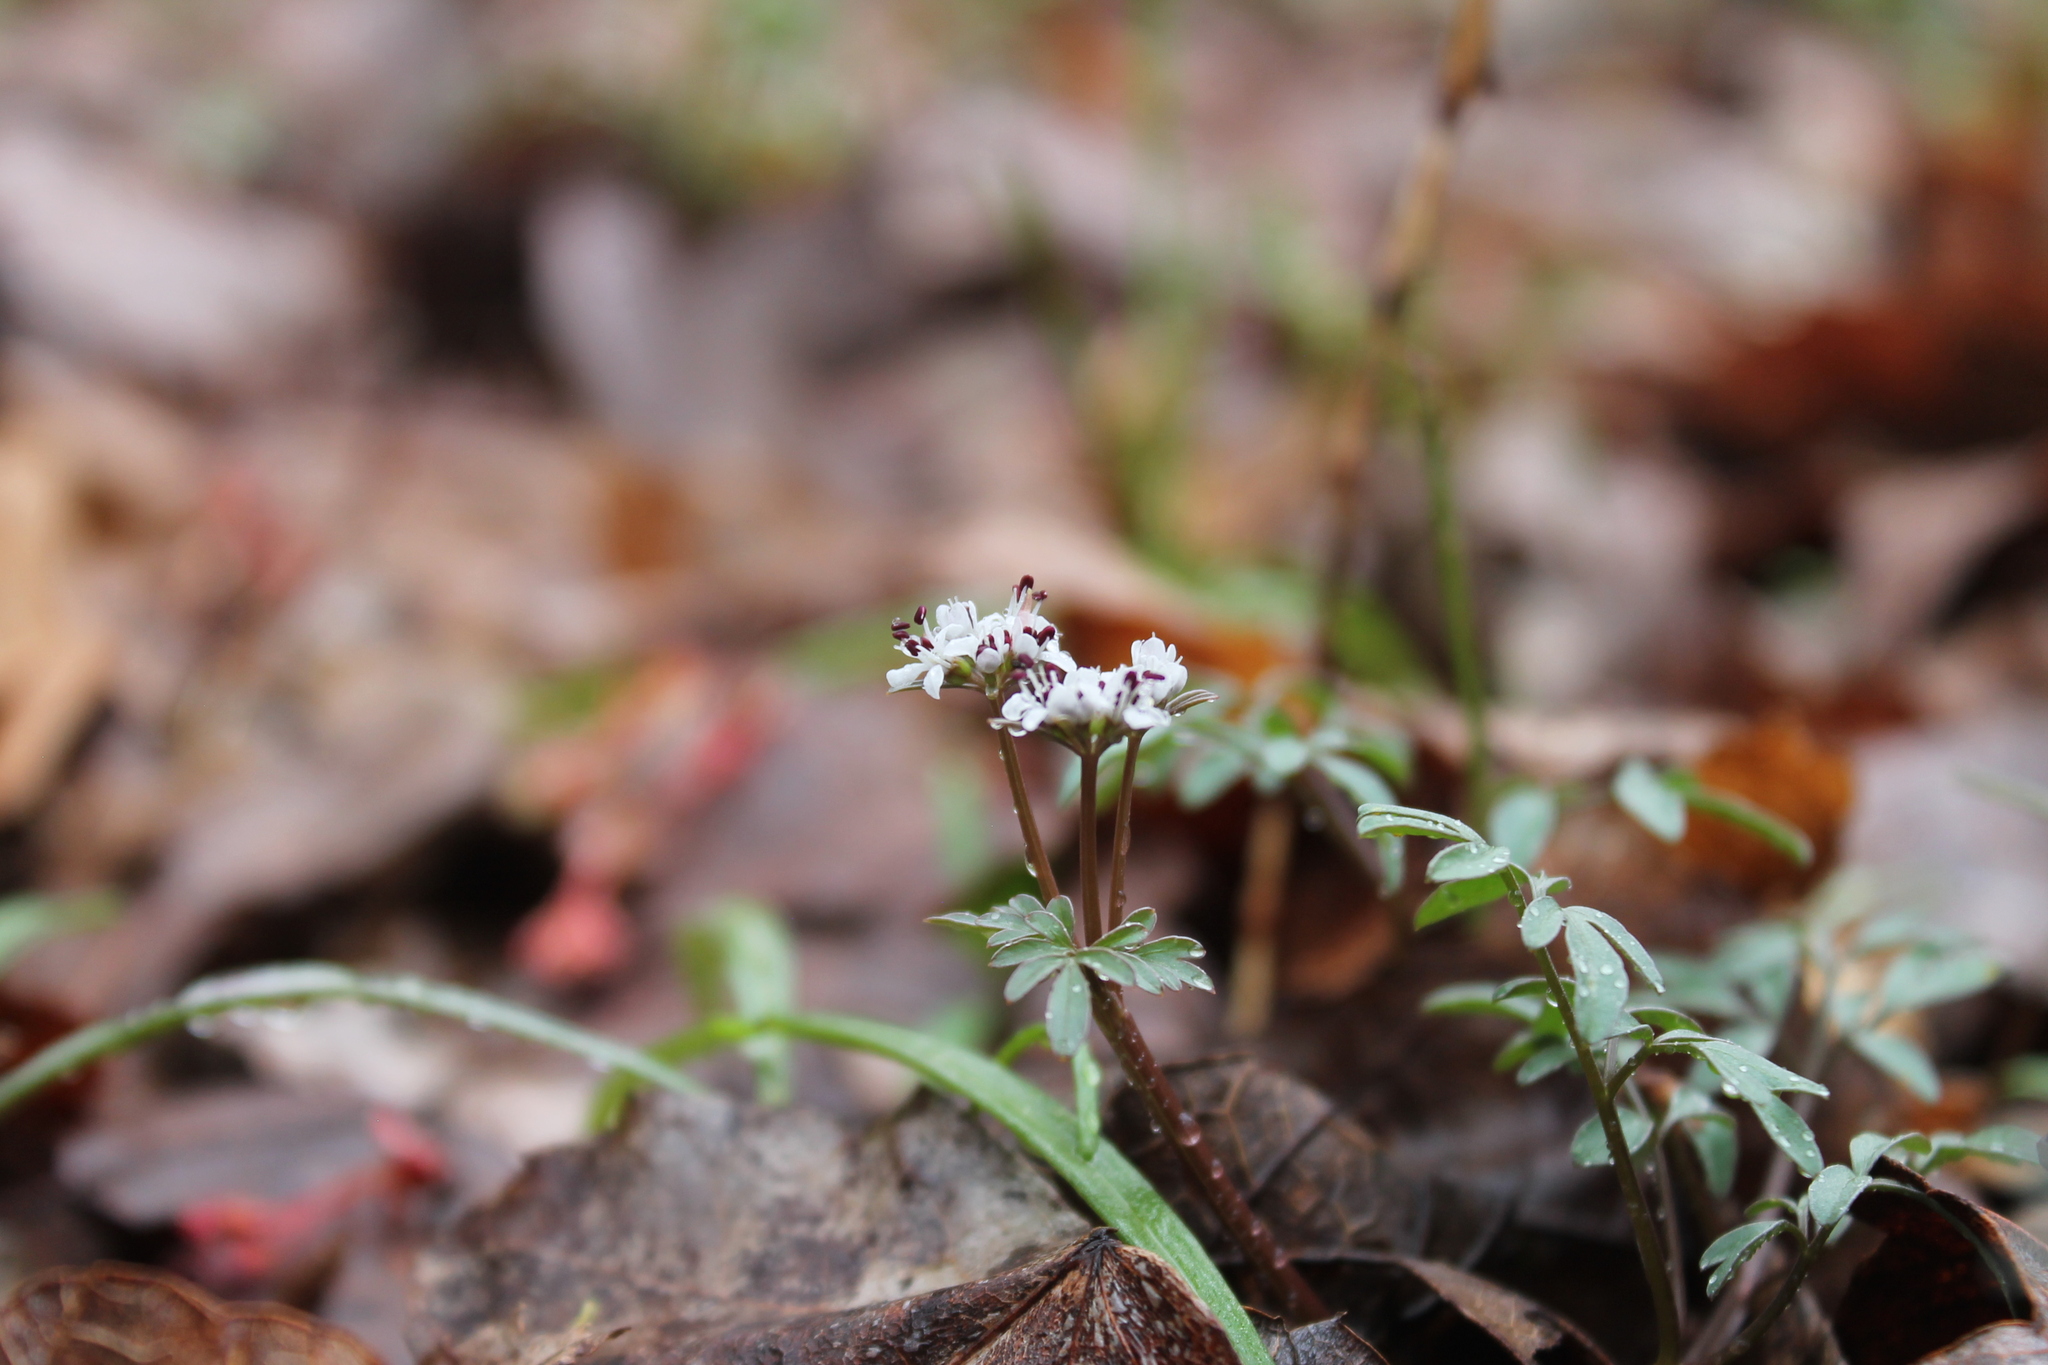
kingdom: Plantae
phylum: Tracheophyta
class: Magnoliopsida
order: Apiales
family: Apiaceae
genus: Erigenia
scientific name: Erigenia bulbosa
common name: Pepper-and-salt
